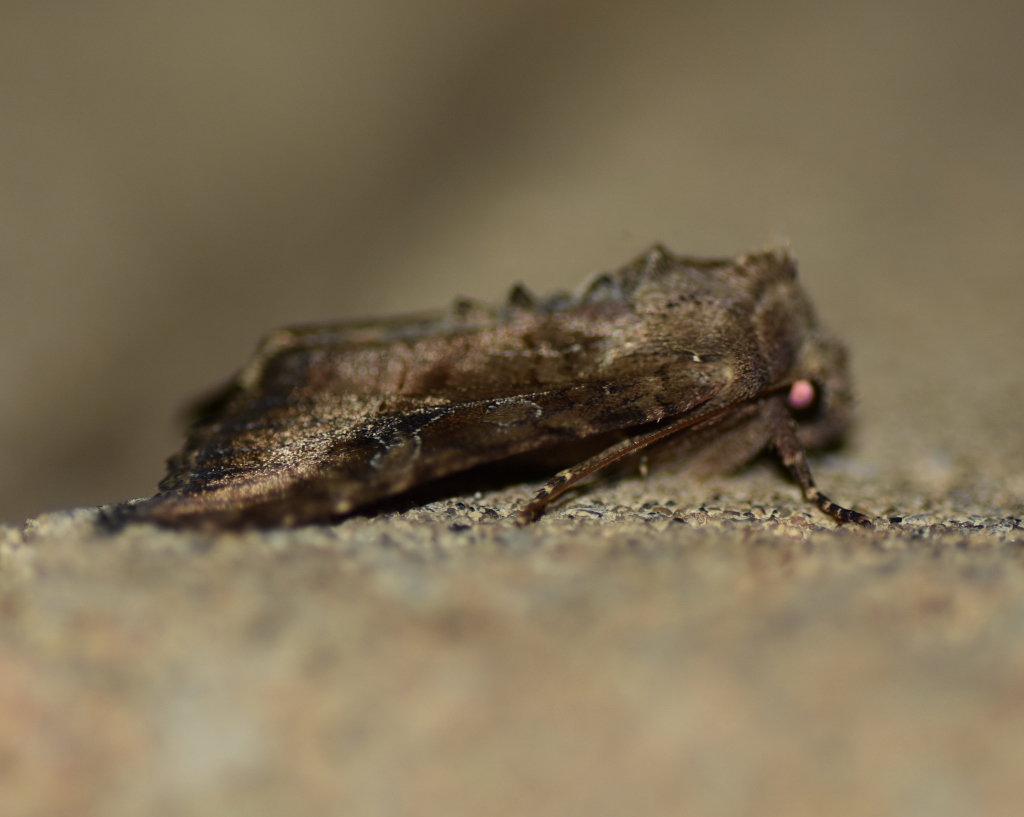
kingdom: Animalia
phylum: Arthropoda
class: Insecta
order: Lepidoptera
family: Noctuidae
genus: Loscopia
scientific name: Loscopia velata
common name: Veiled ear moth
